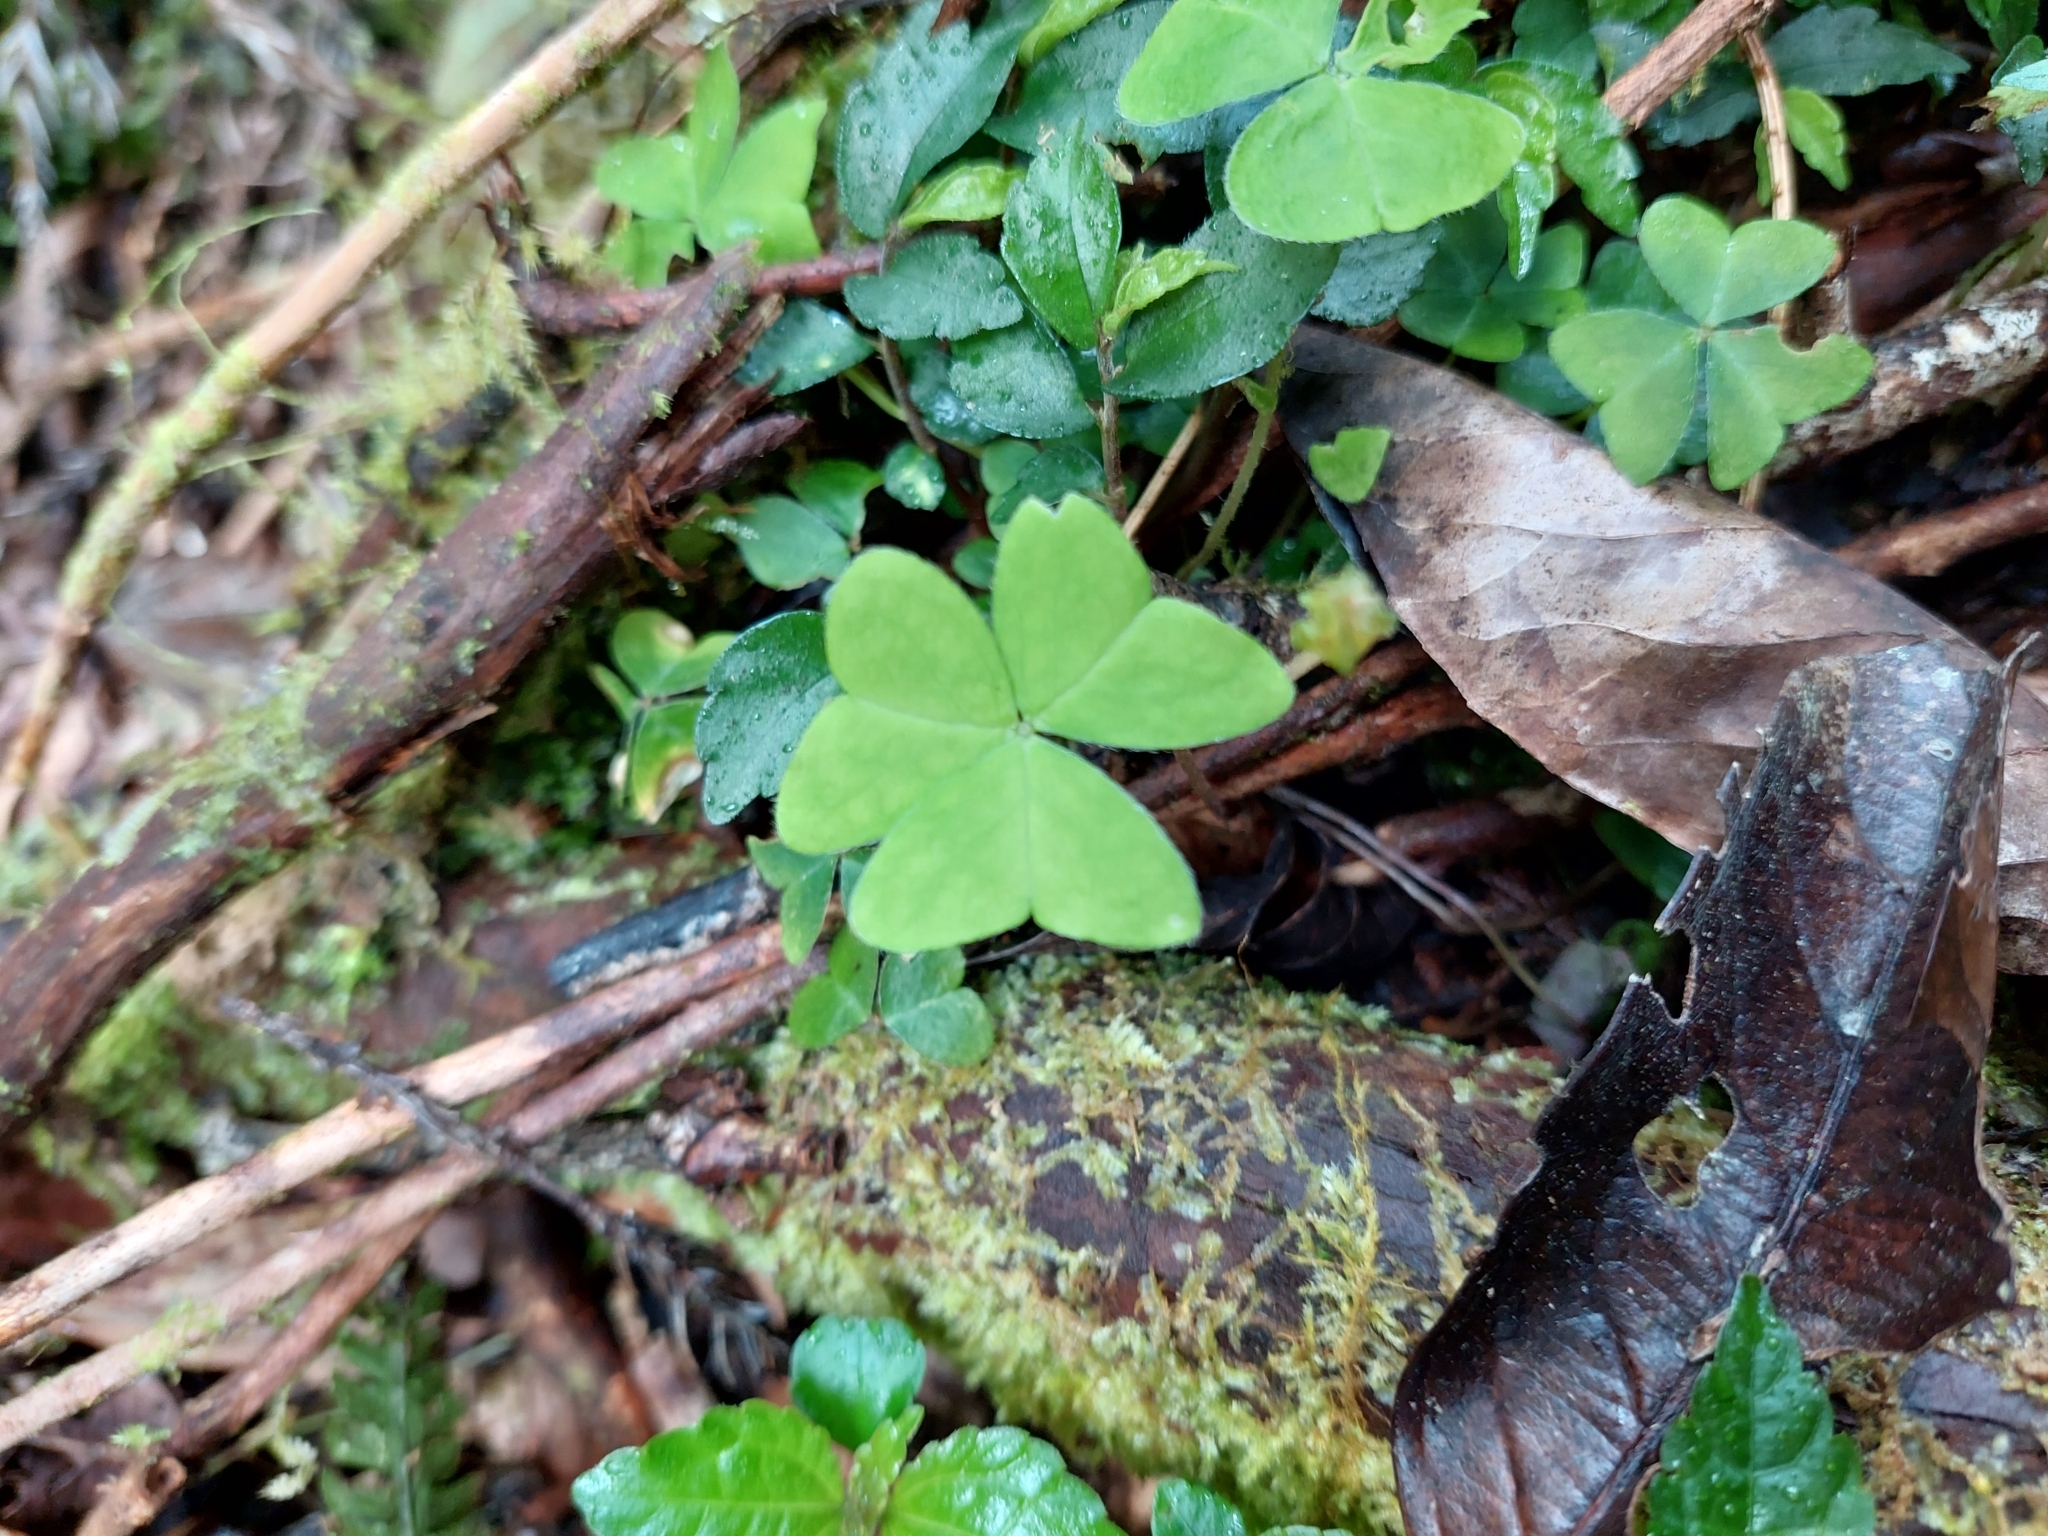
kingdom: Plantae
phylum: Tracheophyta
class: Magnoliopsida
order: Oxalidales
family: Oxalidaceae
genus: Oxalis
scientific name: Oxalis griffithii
